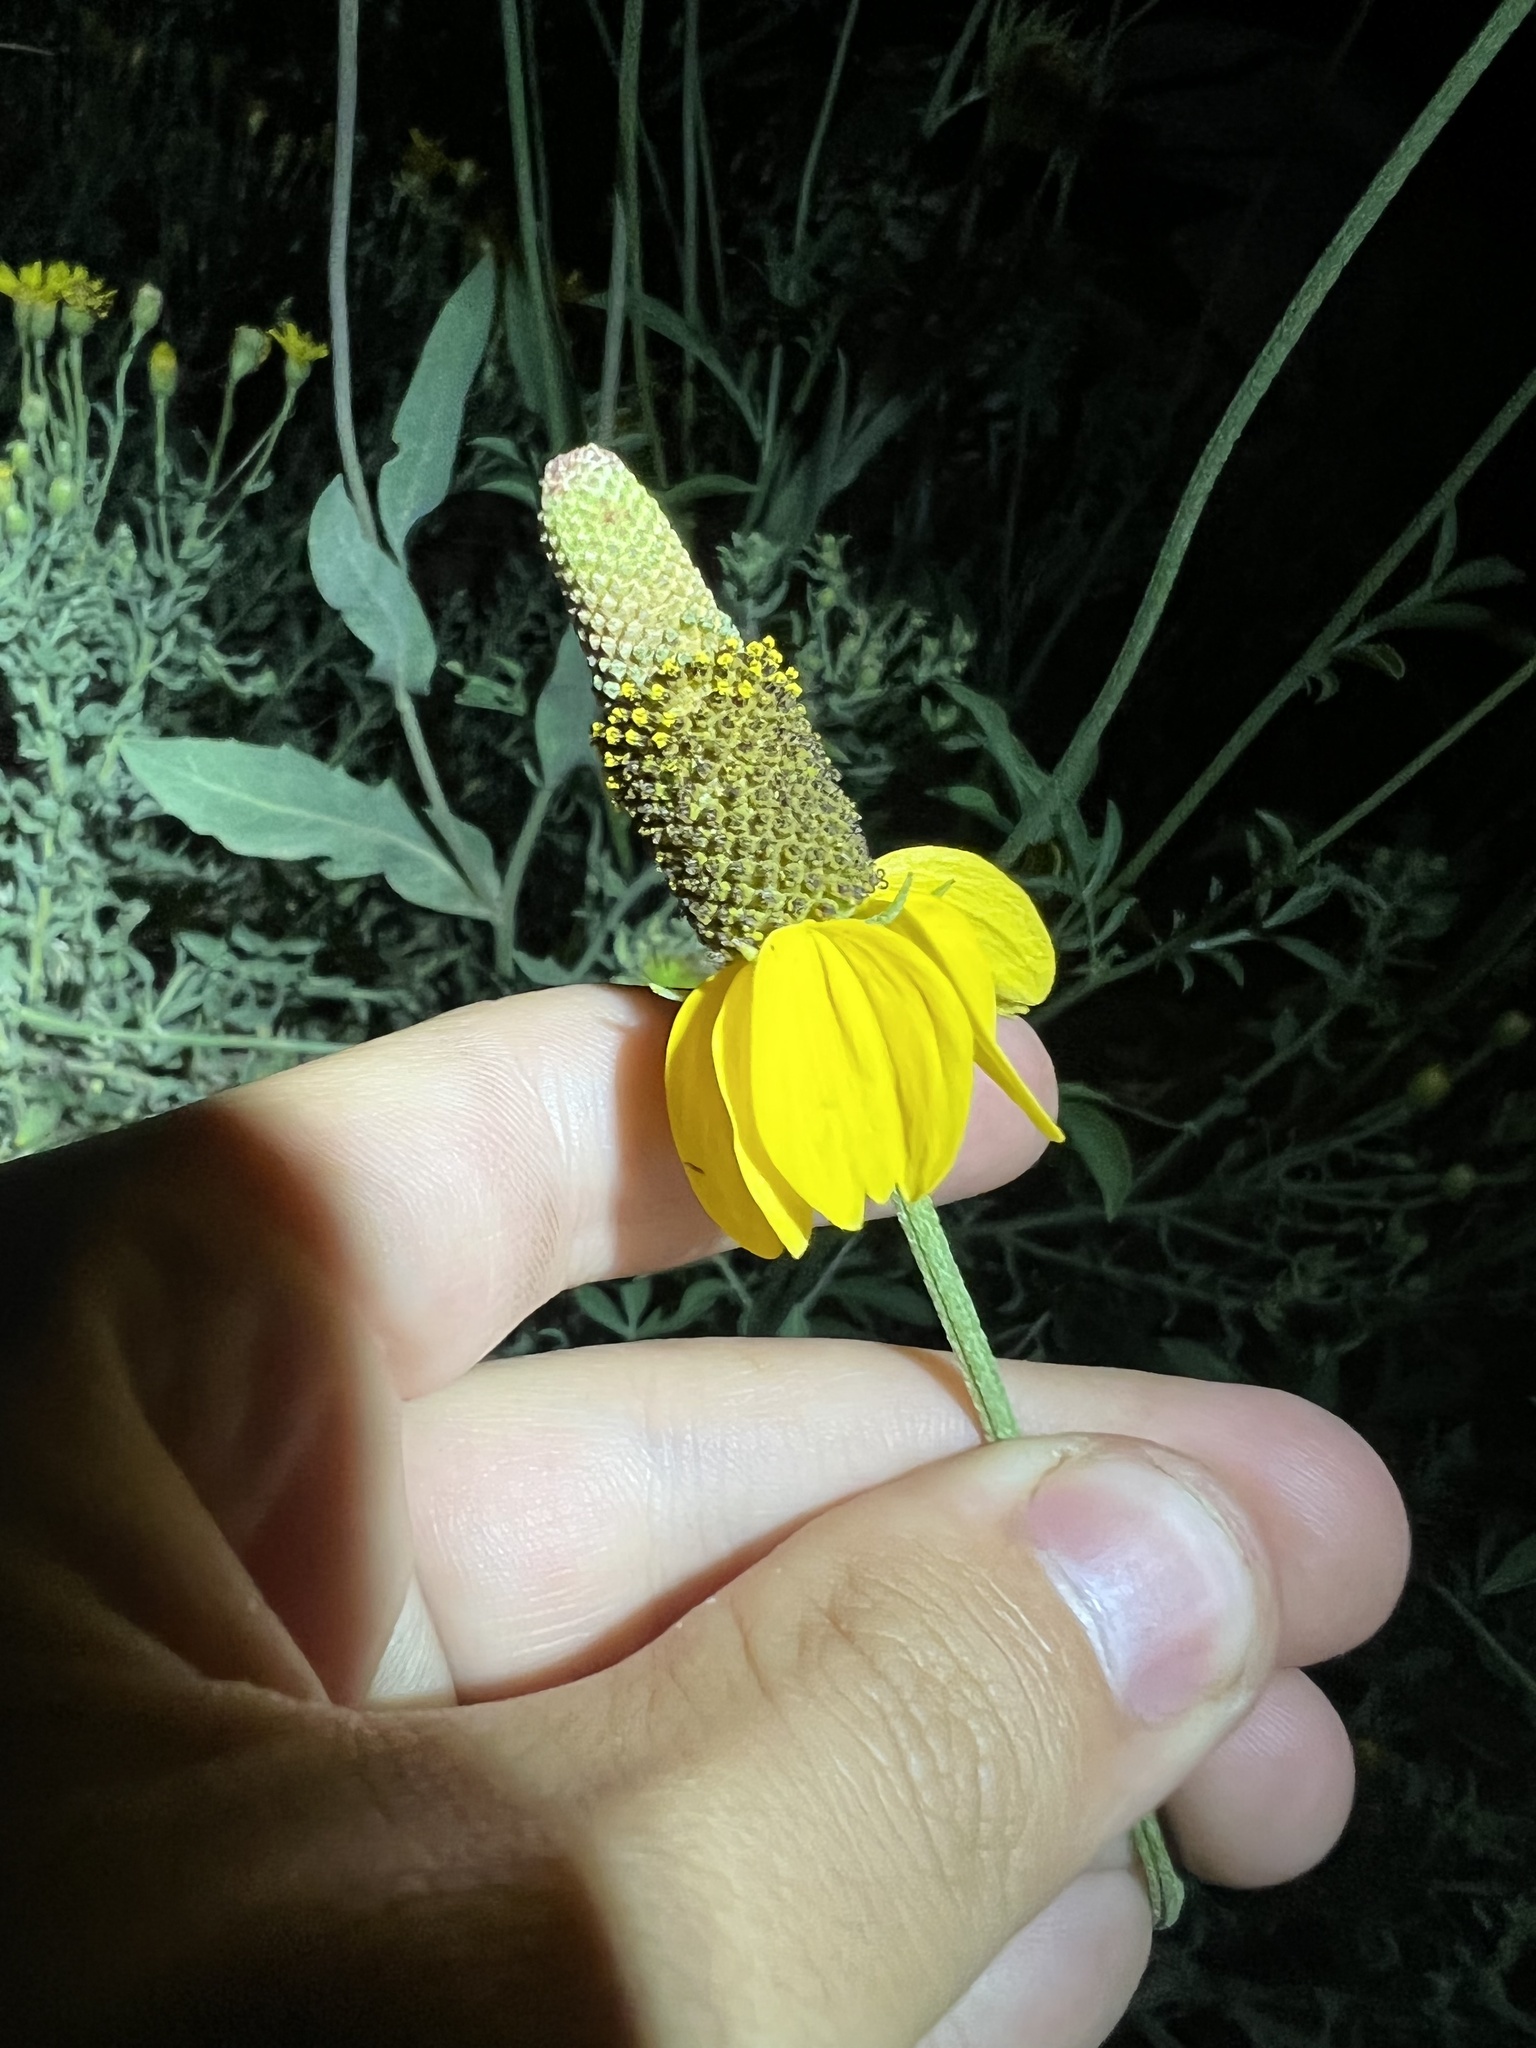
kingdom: Plantae
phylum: Tracheophyta
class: Magnoliopsida
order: Asterales
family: Asteraceae
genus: Ratibida
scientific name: Ratibida columnifera
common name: Prairie coneflower
